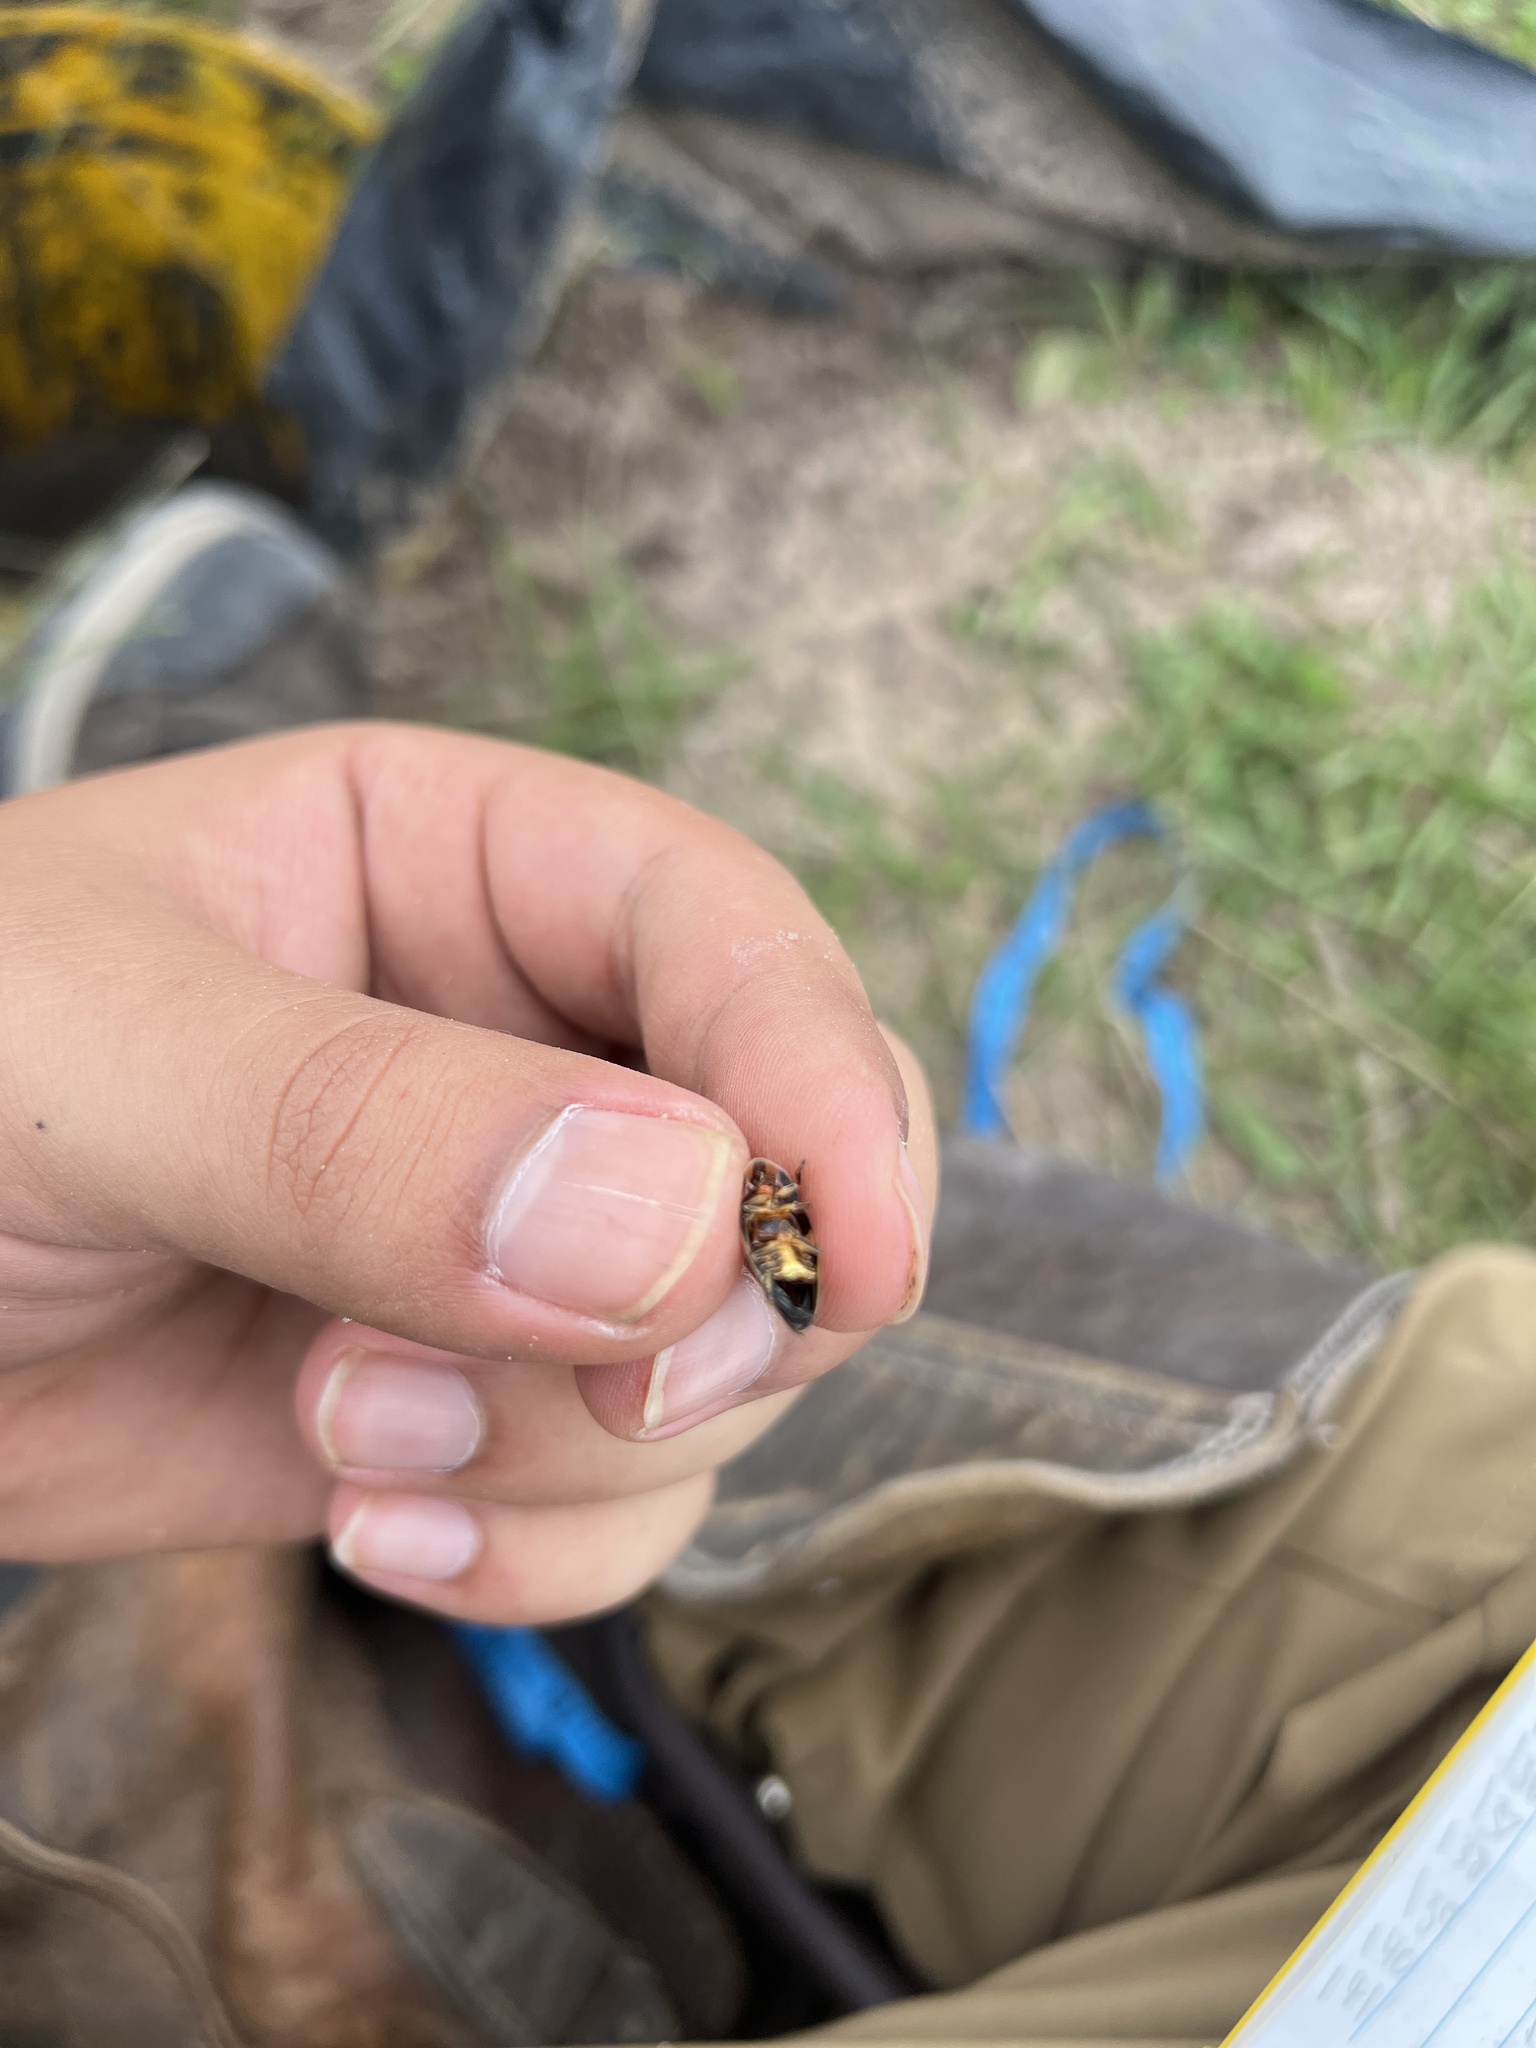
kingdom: Animalia
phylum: Arthropoda
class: Insecta
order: Coleoptera
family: Lampyridae
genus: Aspisoma
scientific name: Aspisoma ignitum
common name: Dixon's striped firefly
